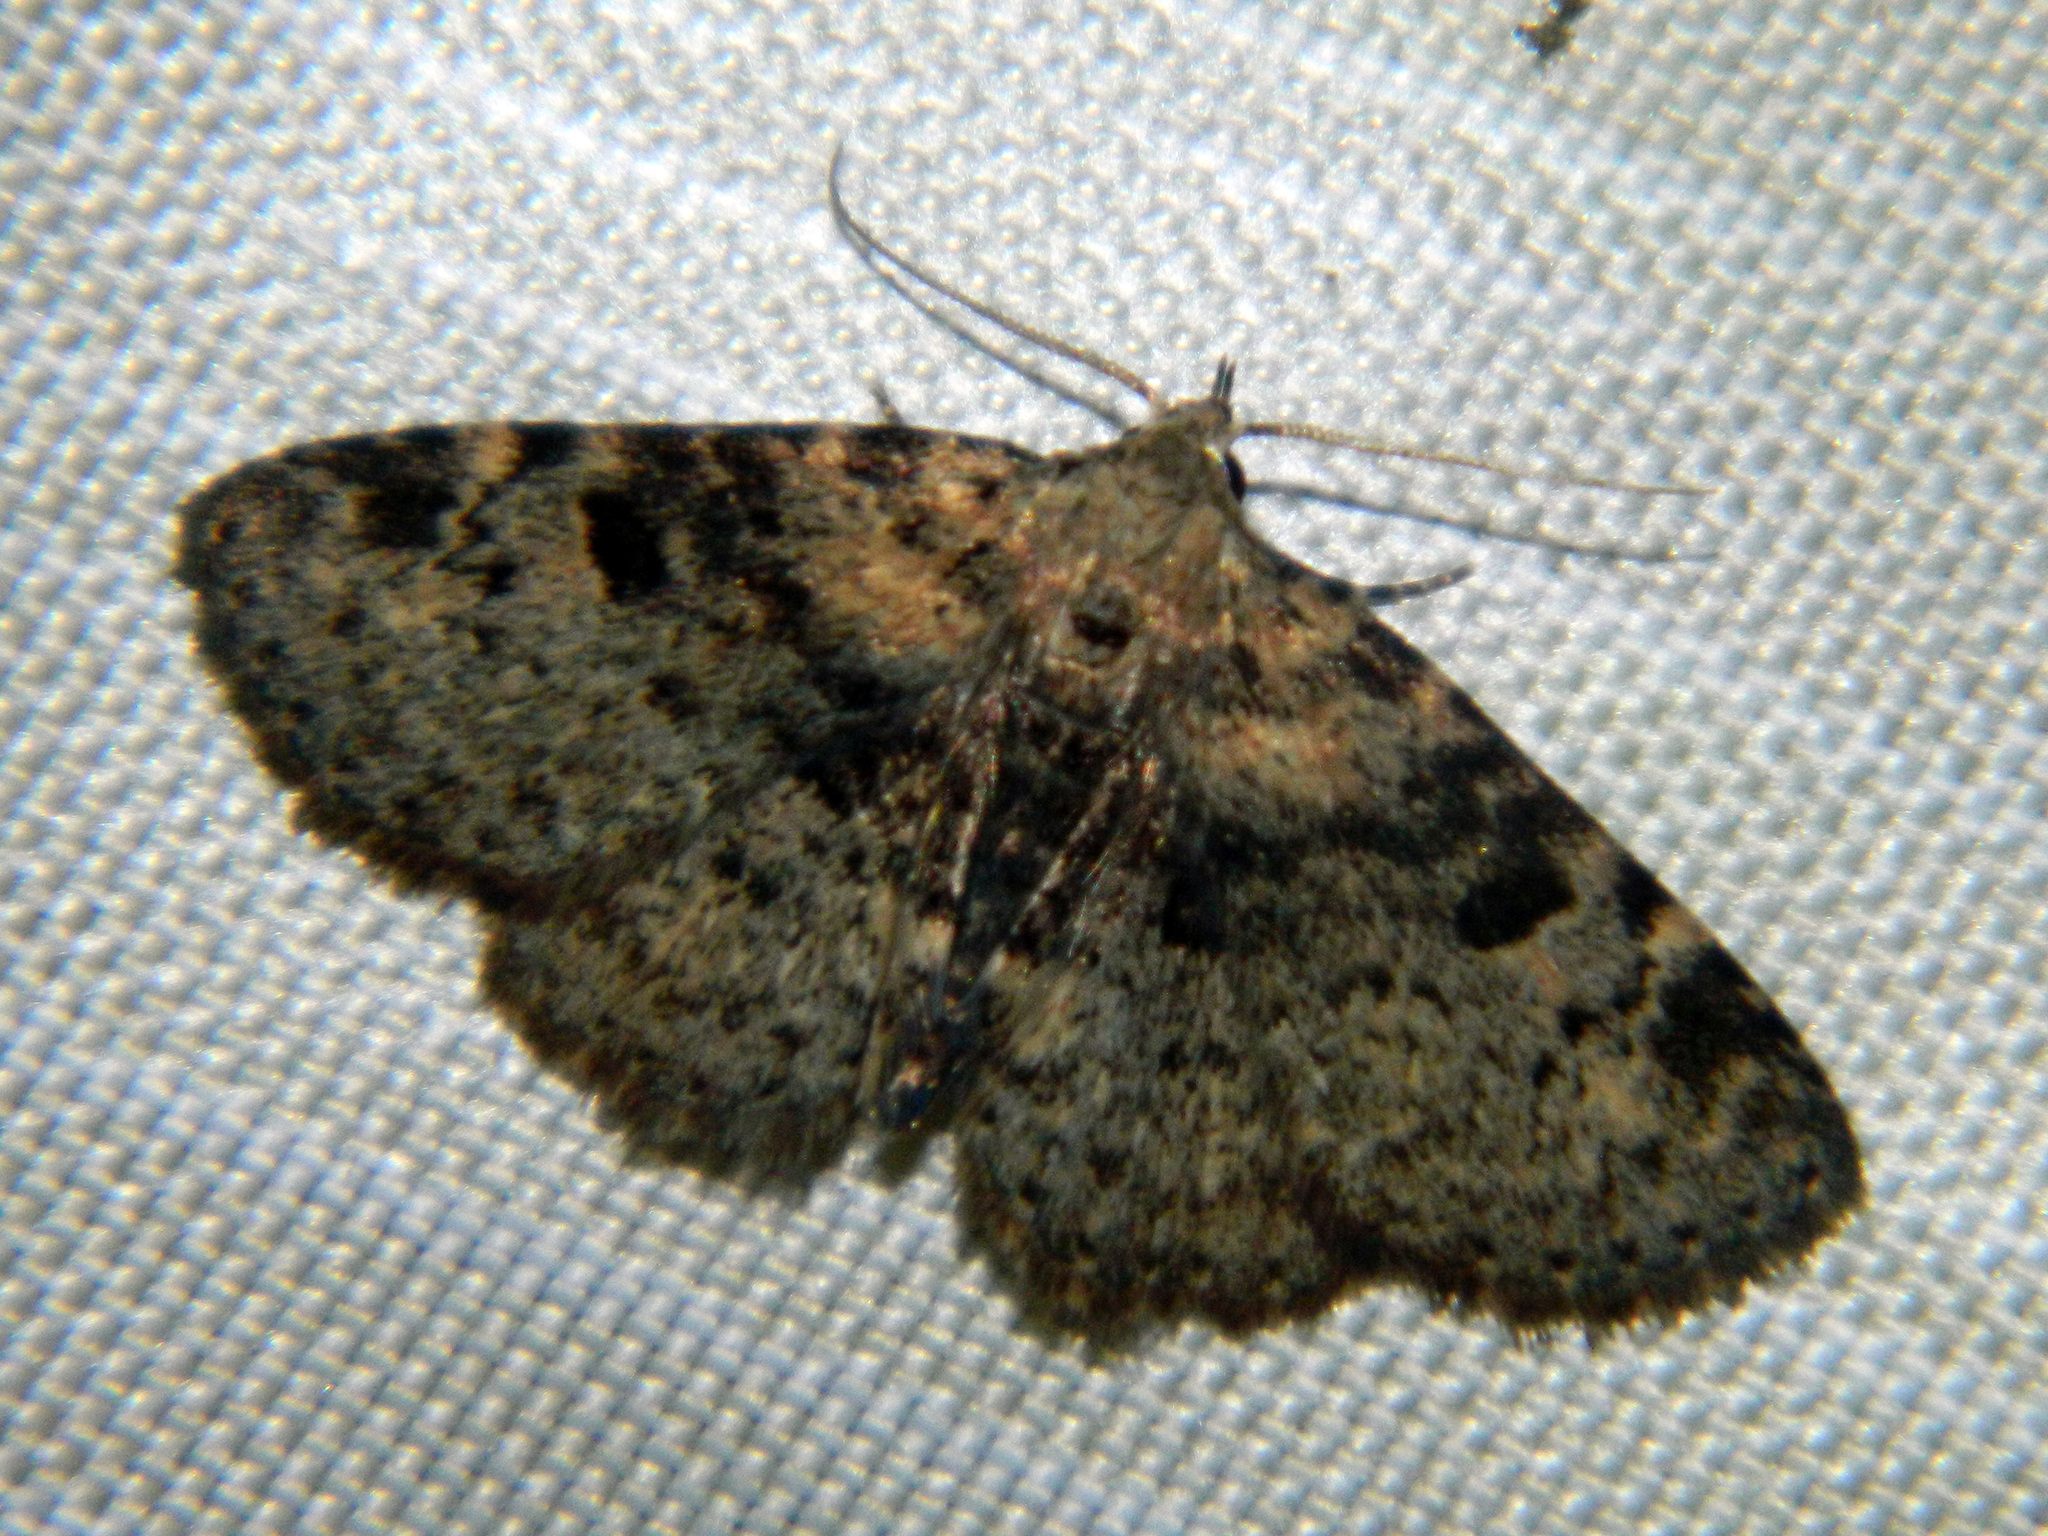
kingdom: Animalia
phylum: Arthropoda
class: Insecta
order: Lepidoptera
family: Erebidae
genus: Metalectra
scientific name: Metalectra quadrisignata
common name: Four-spotted fungus moth
